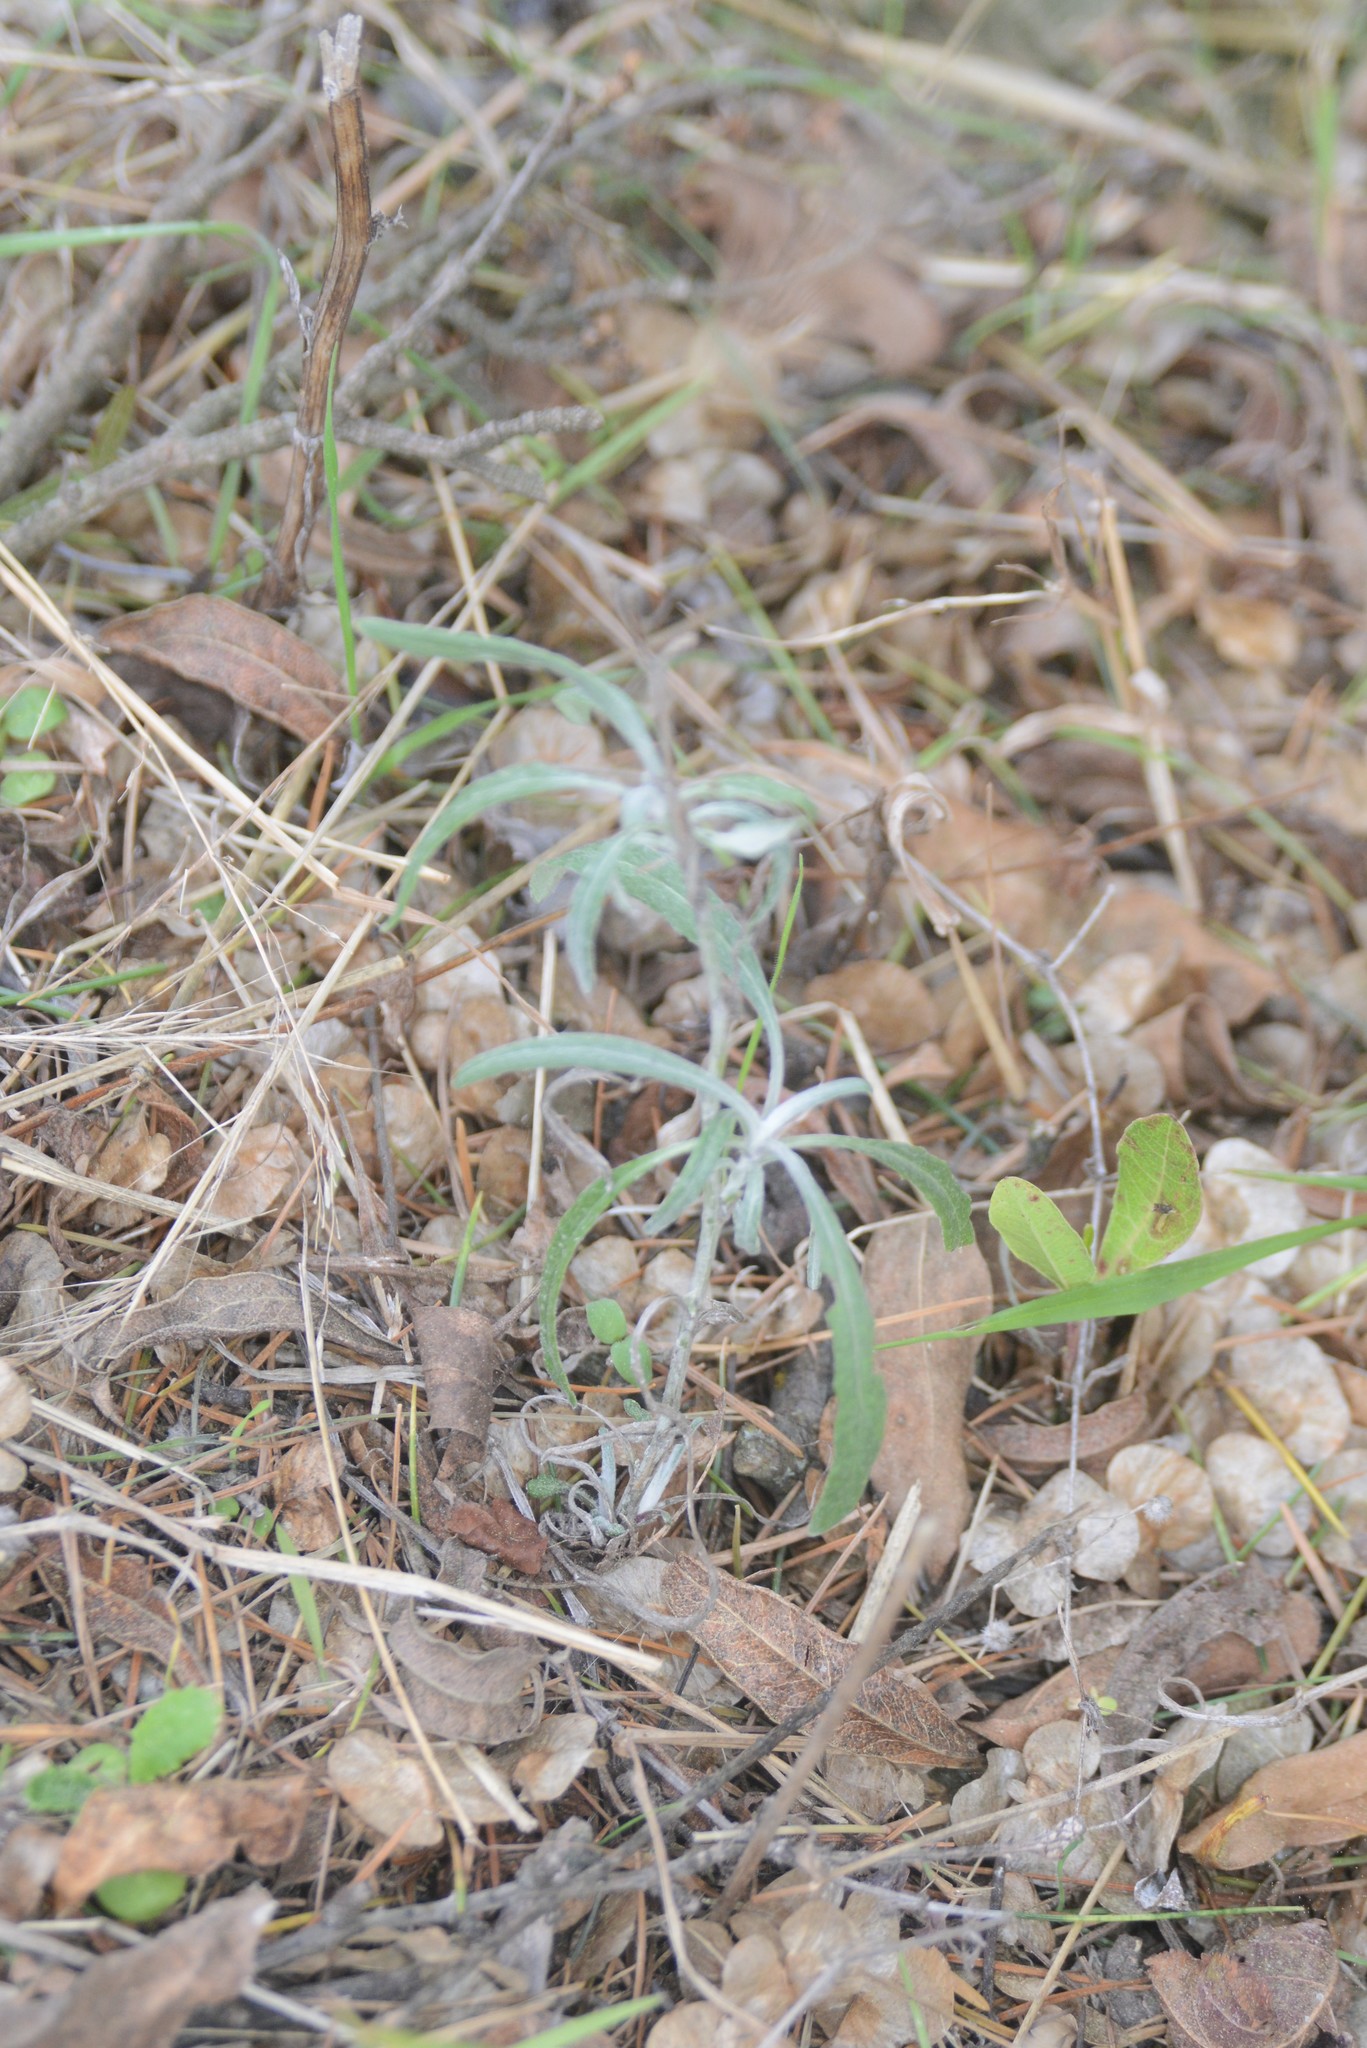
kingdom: Plantae
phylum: Tracheophyta
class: Magnoliopsida
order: Asterales
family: Asteraceae
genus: Senecio
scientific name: Senecio quadridentatus
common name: Cotton fireweed
